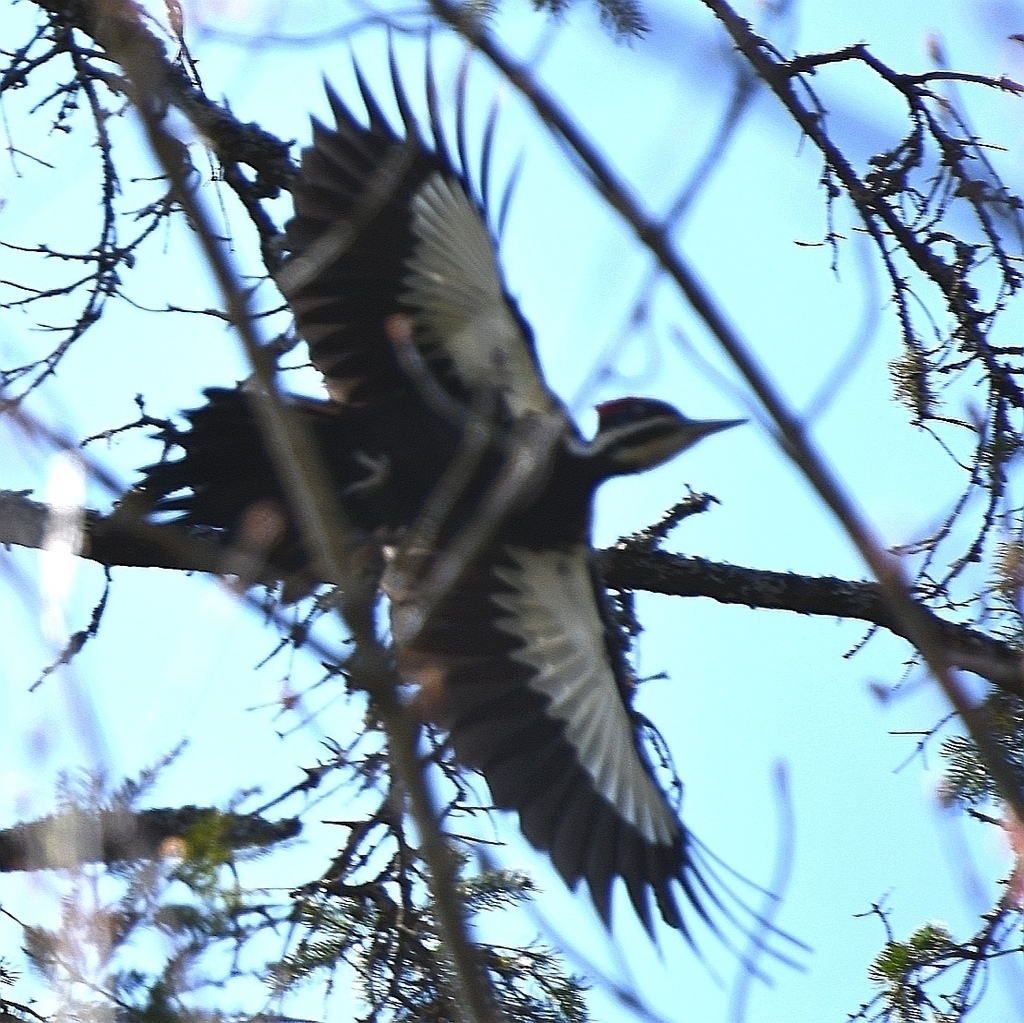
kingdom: Animalia
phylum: Chordata
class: Aves
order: Piciformes
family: Picidae
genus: Dryocopus
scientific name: Dryocopus pileatus
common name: Pileated woodpecker
